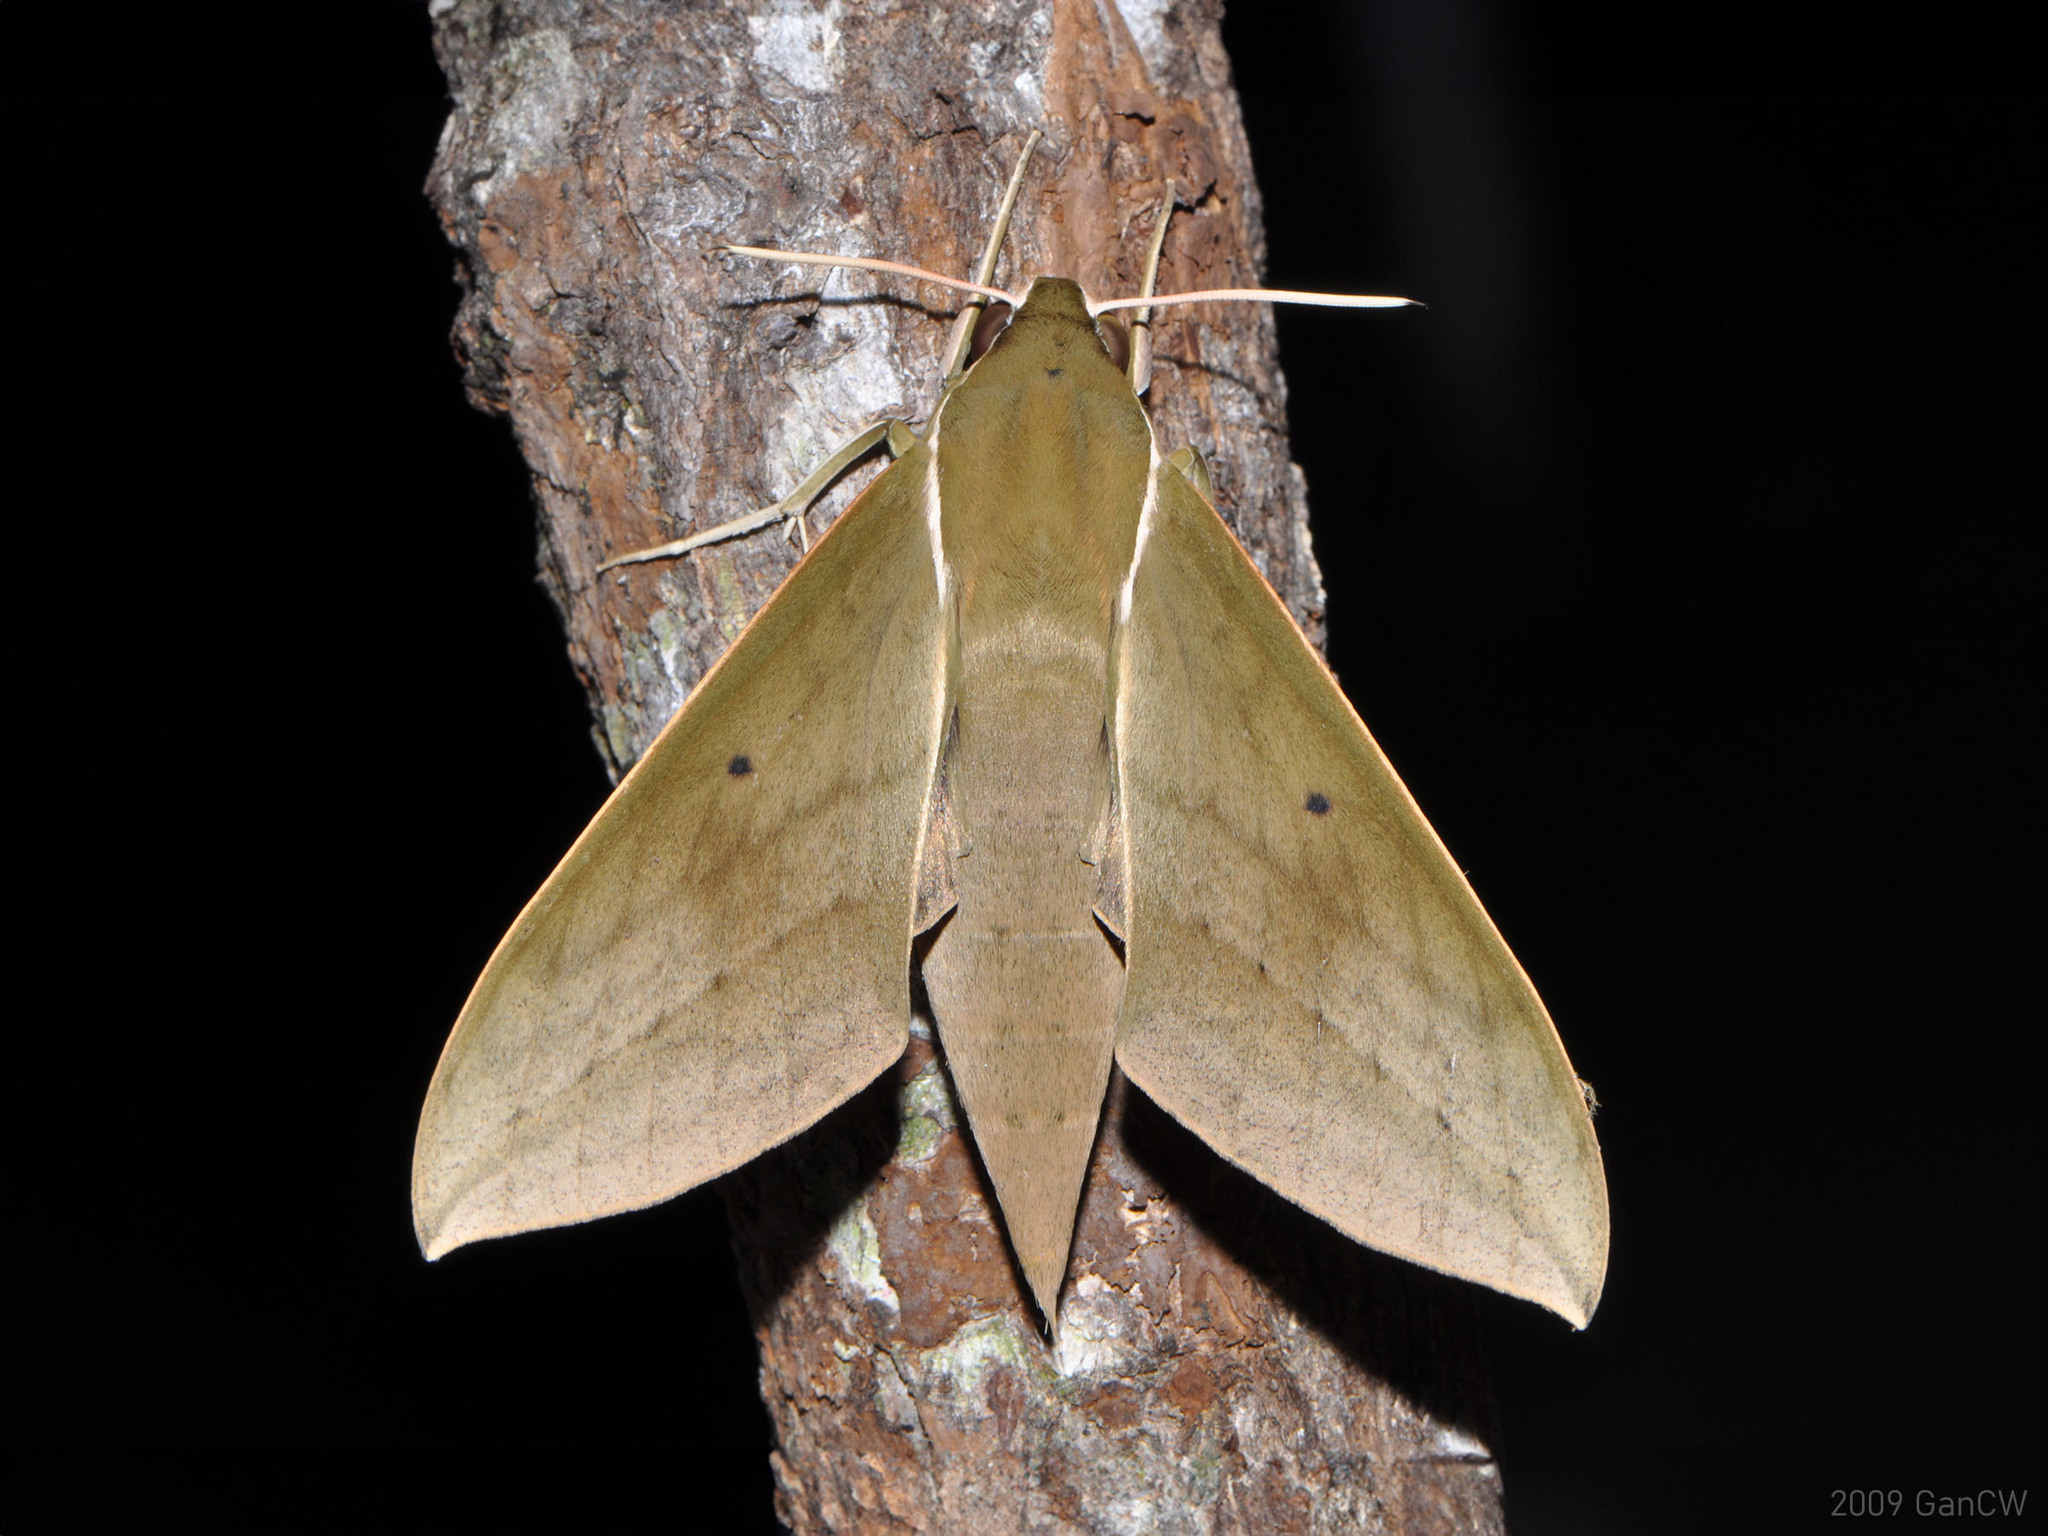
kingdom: Animalia
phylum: Arthropoda
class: Insecta
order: Lepidoptera
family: Sphingidae
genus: Theretra
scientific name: Theretra boisduvalii
